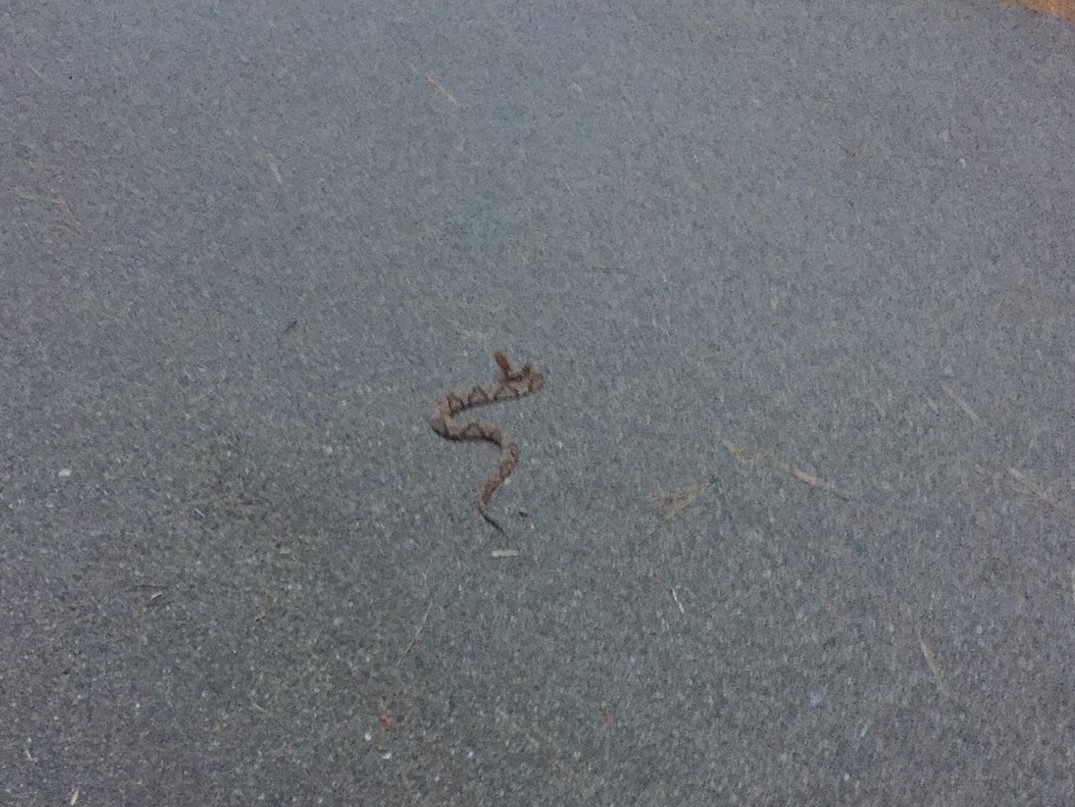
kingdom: Animalia
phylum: Chordata
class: Squamata
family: Viperidae
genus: Agkistrodon
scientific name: Agkistrodon contortrix
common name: Northern copperhead
